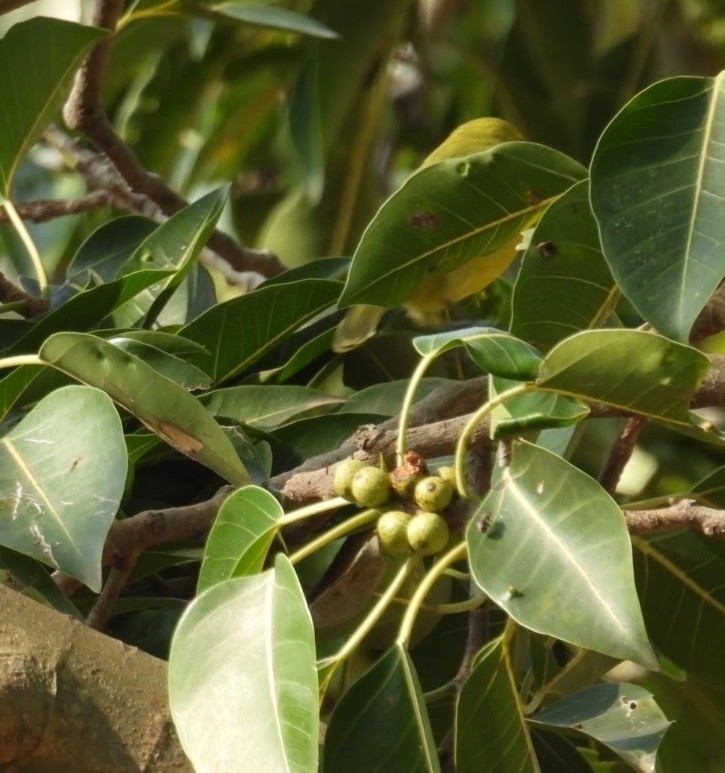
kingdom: Animalia
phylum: Chordata
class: Aves
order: Passeriformes
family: Aegithinidae
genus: Aegithina
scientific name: Aegithina tiphia
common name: Common iora
